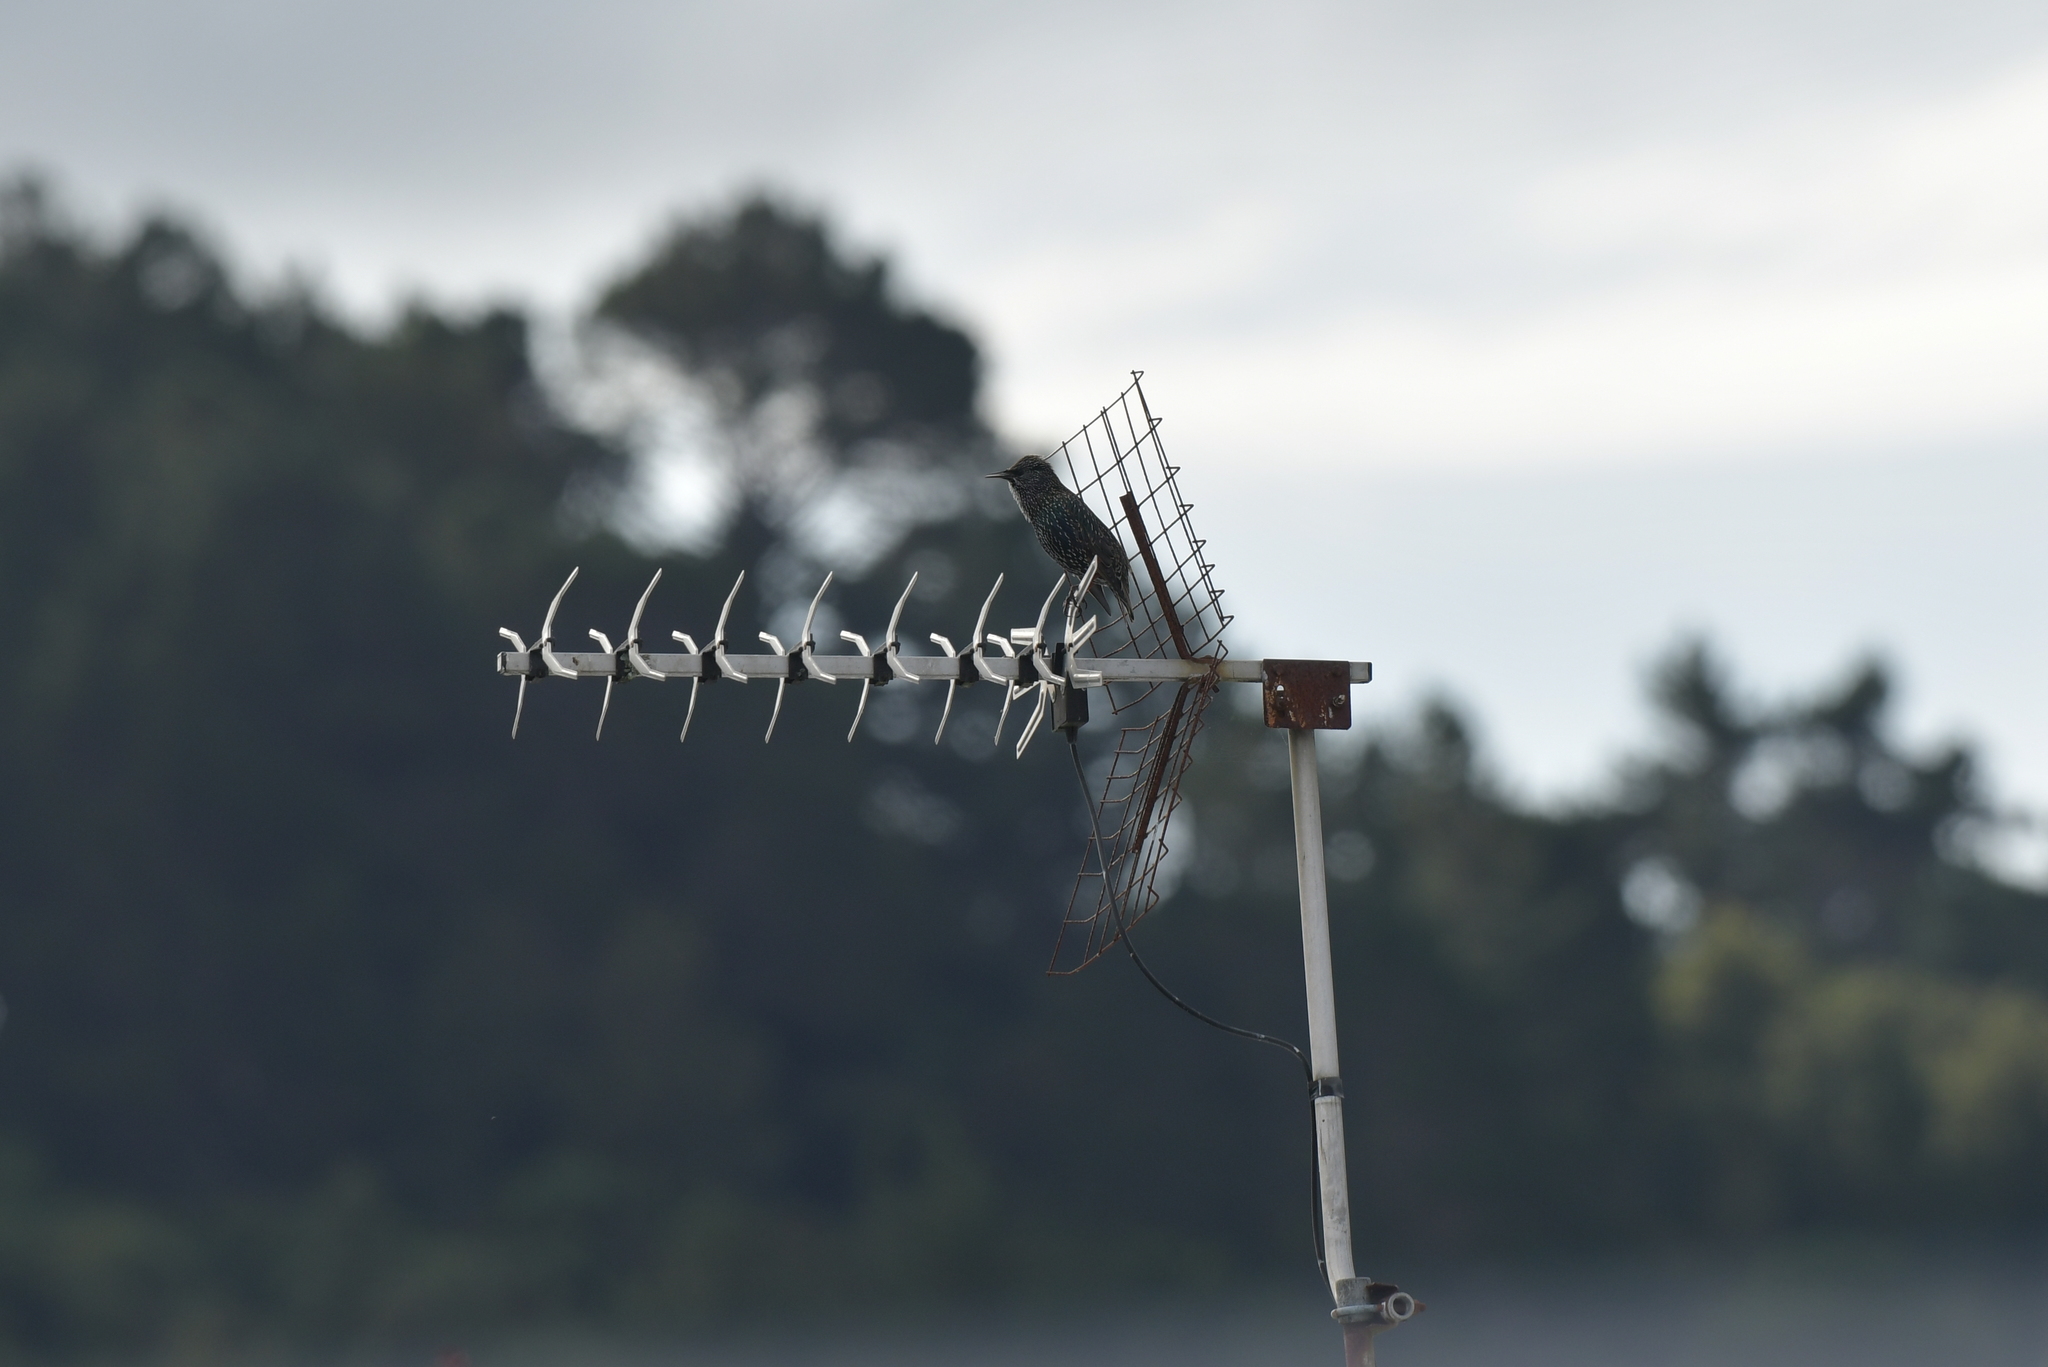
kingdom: Animalia
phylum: Chordata
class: Aves
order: Passeriformes
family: Sturnidae
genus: Sturnus
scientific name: Sturnus vulgaris
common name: Common starling
